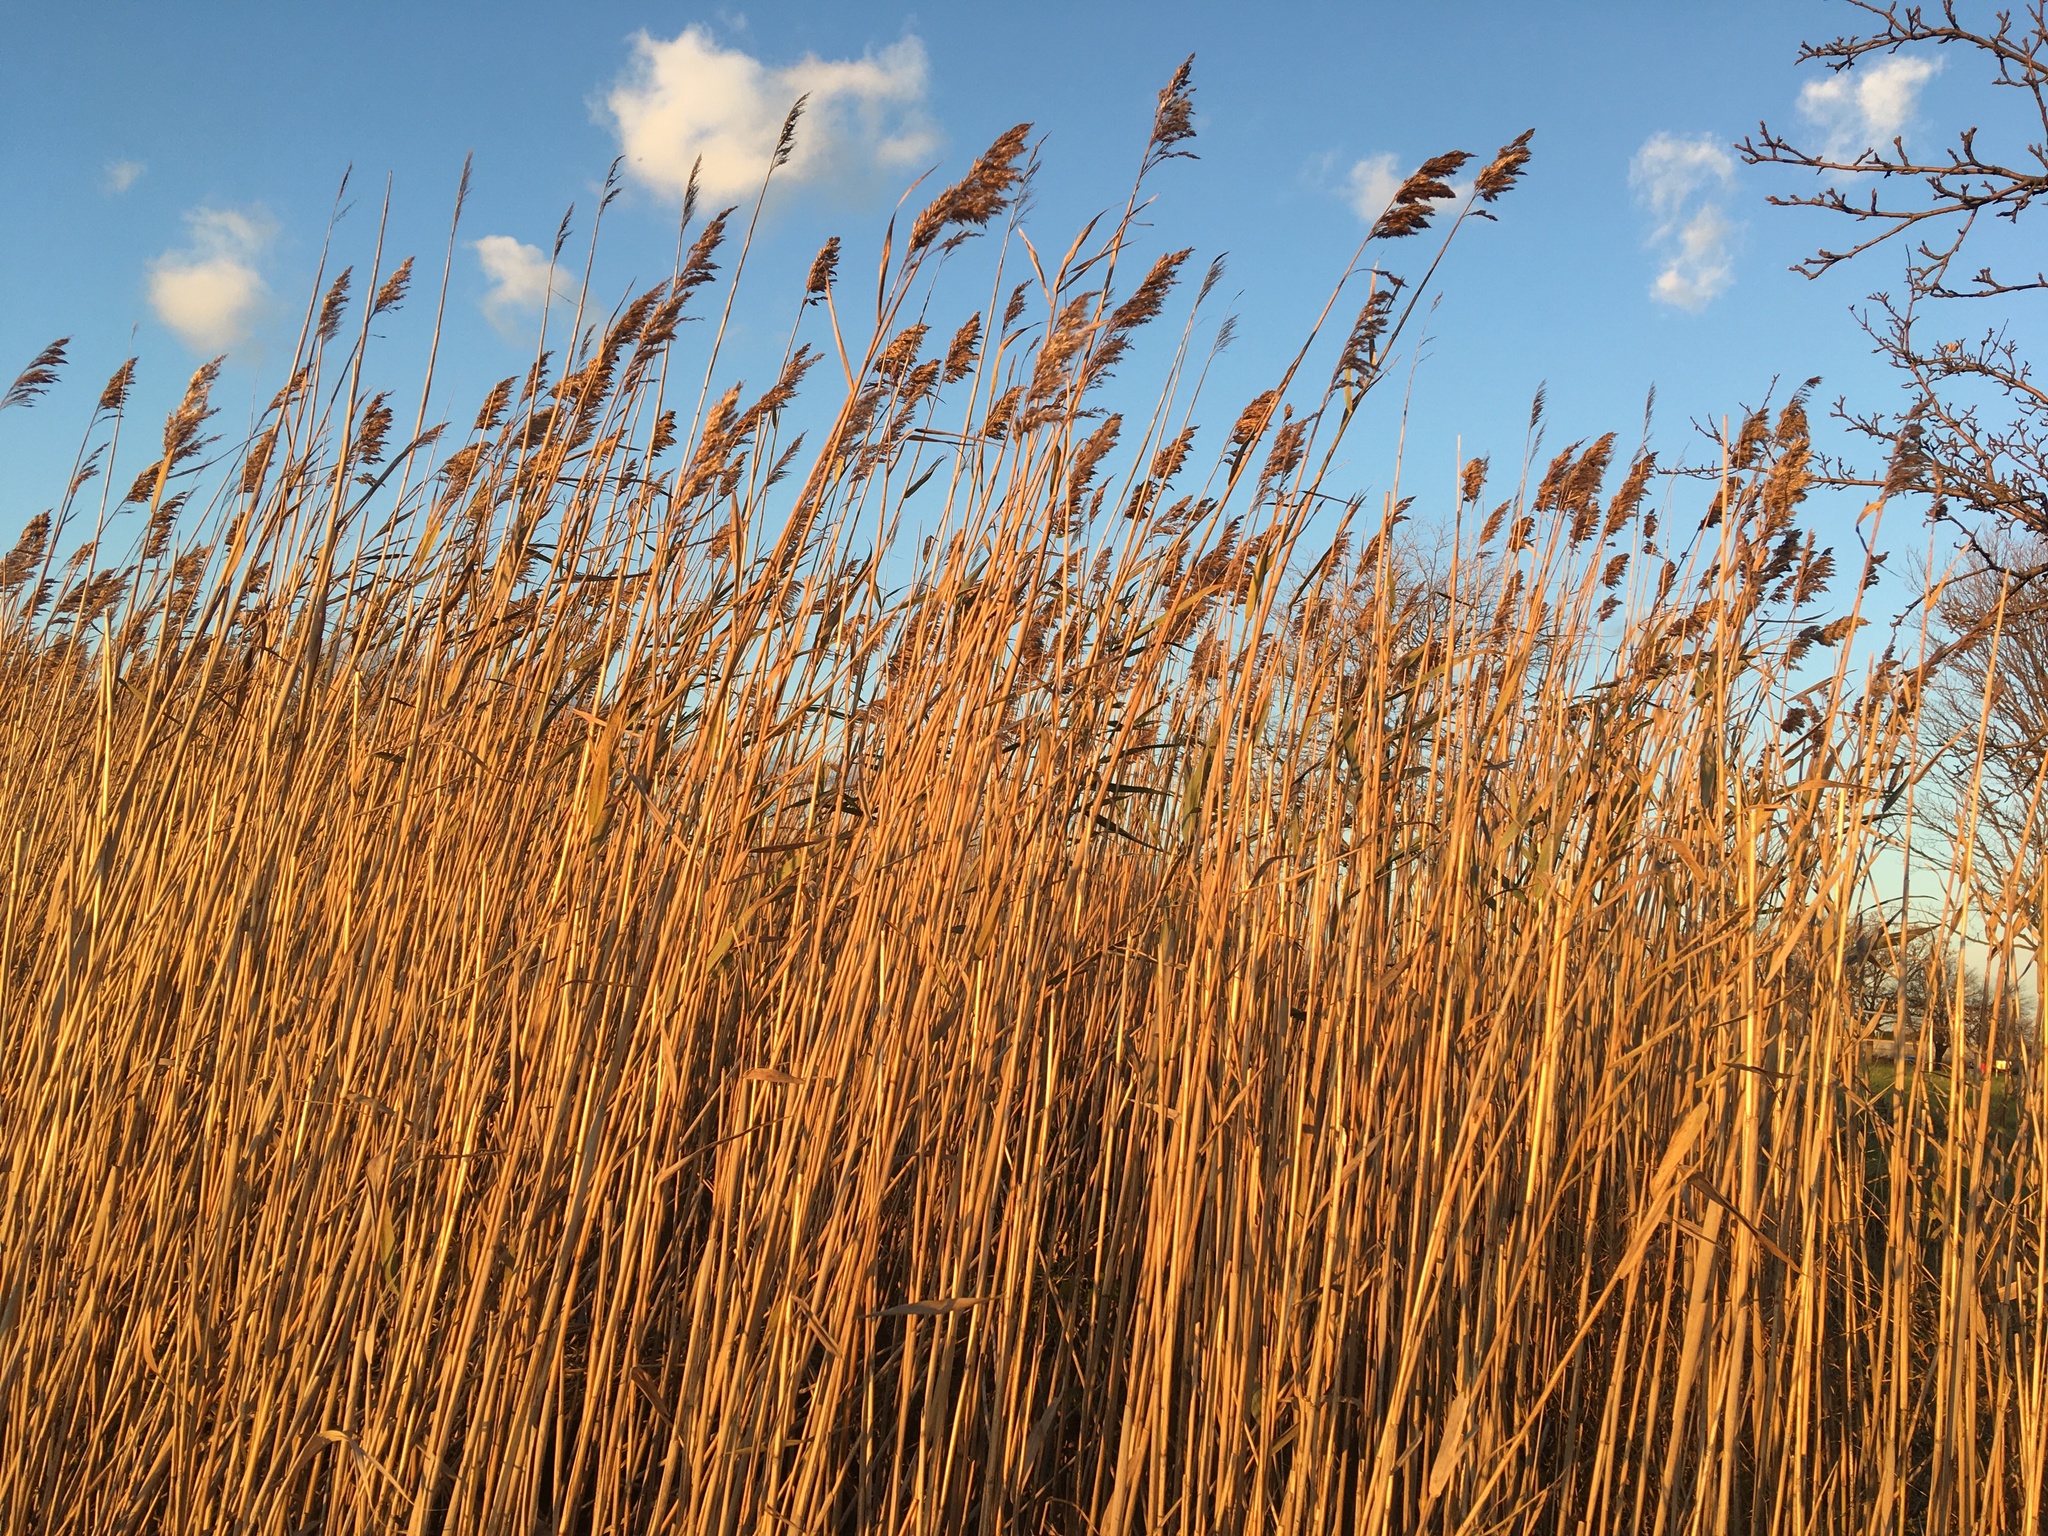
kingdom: Plantae
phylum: Tracheophyta
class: Liliopsida
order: Poales
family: Poaceae
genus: Phragmites
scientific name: Phragmites australis
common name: Common reed
